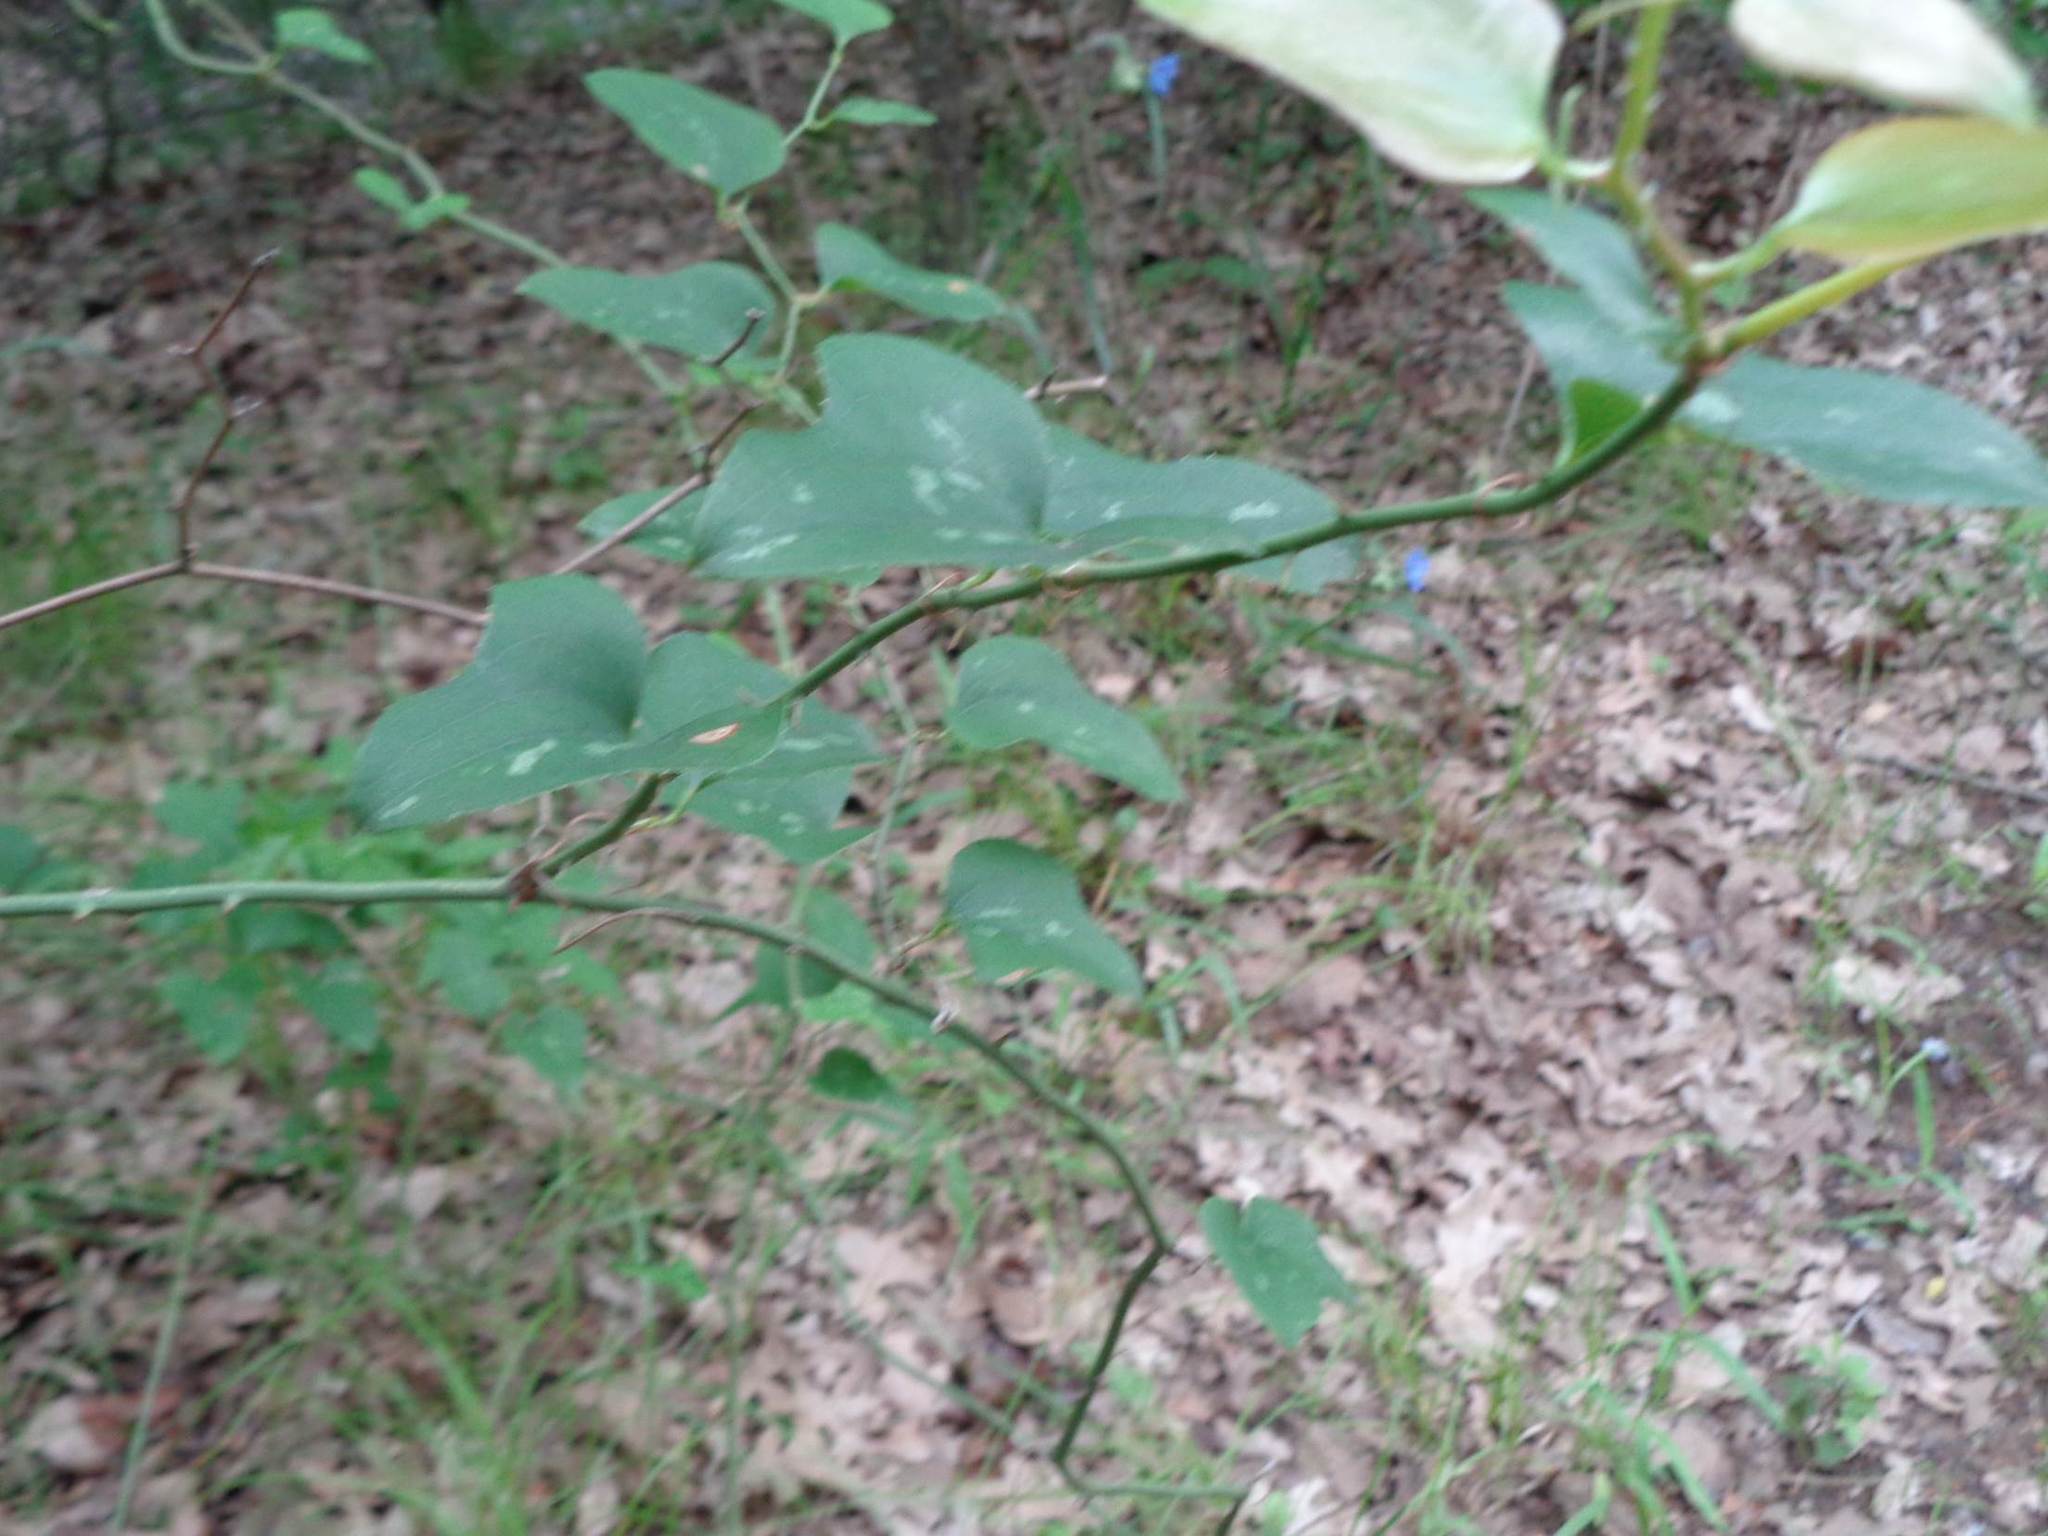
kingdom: Plantae
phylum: Tracheophyta
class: Liliopsida
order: Liliales
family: Smilacaceae
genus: Smilax
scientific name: Smilax bona-nox
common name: Catbrier
